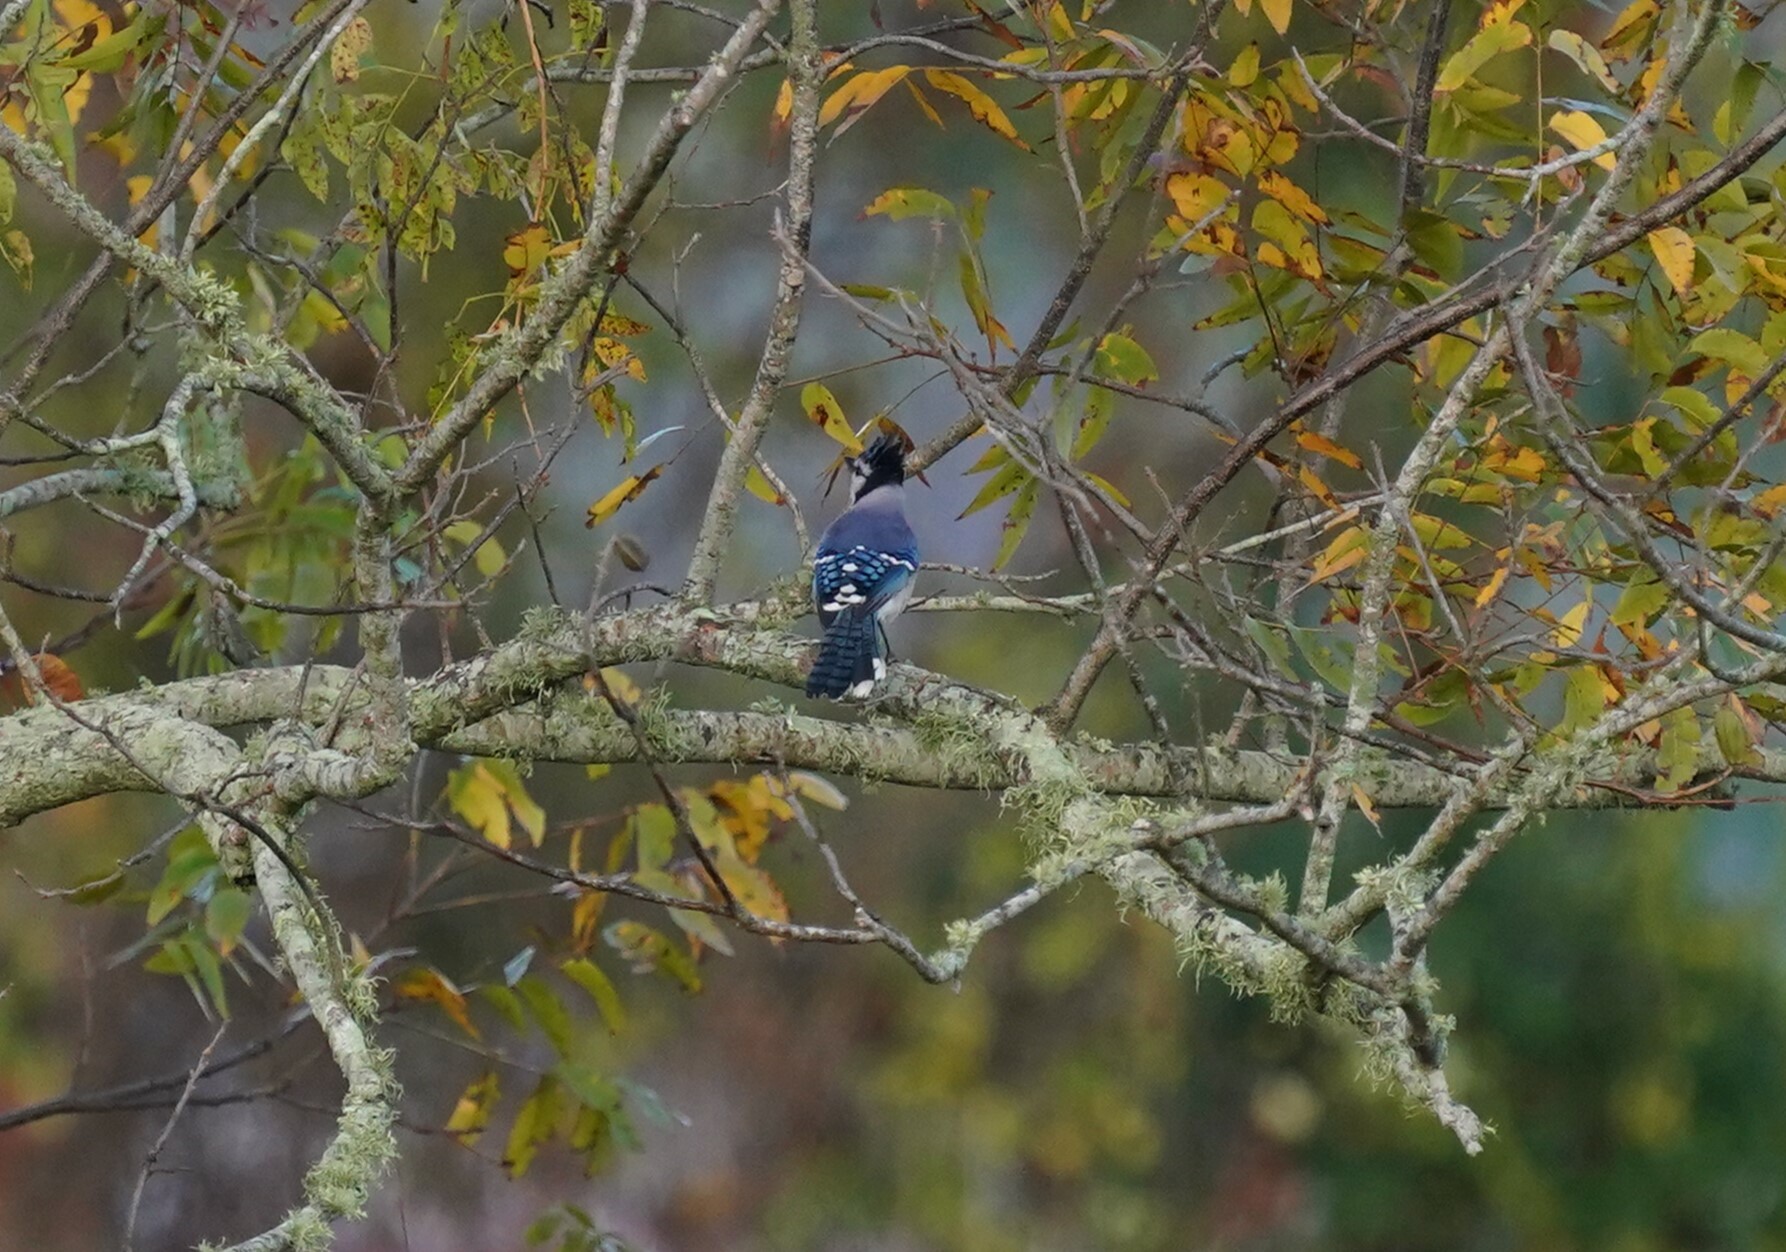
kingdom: Animalia
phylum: Chordata
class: Aves
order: Passeriformes
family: Corvidae
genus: Cyanocitta
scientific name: Cyanocitta cristata
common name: Blue jay
